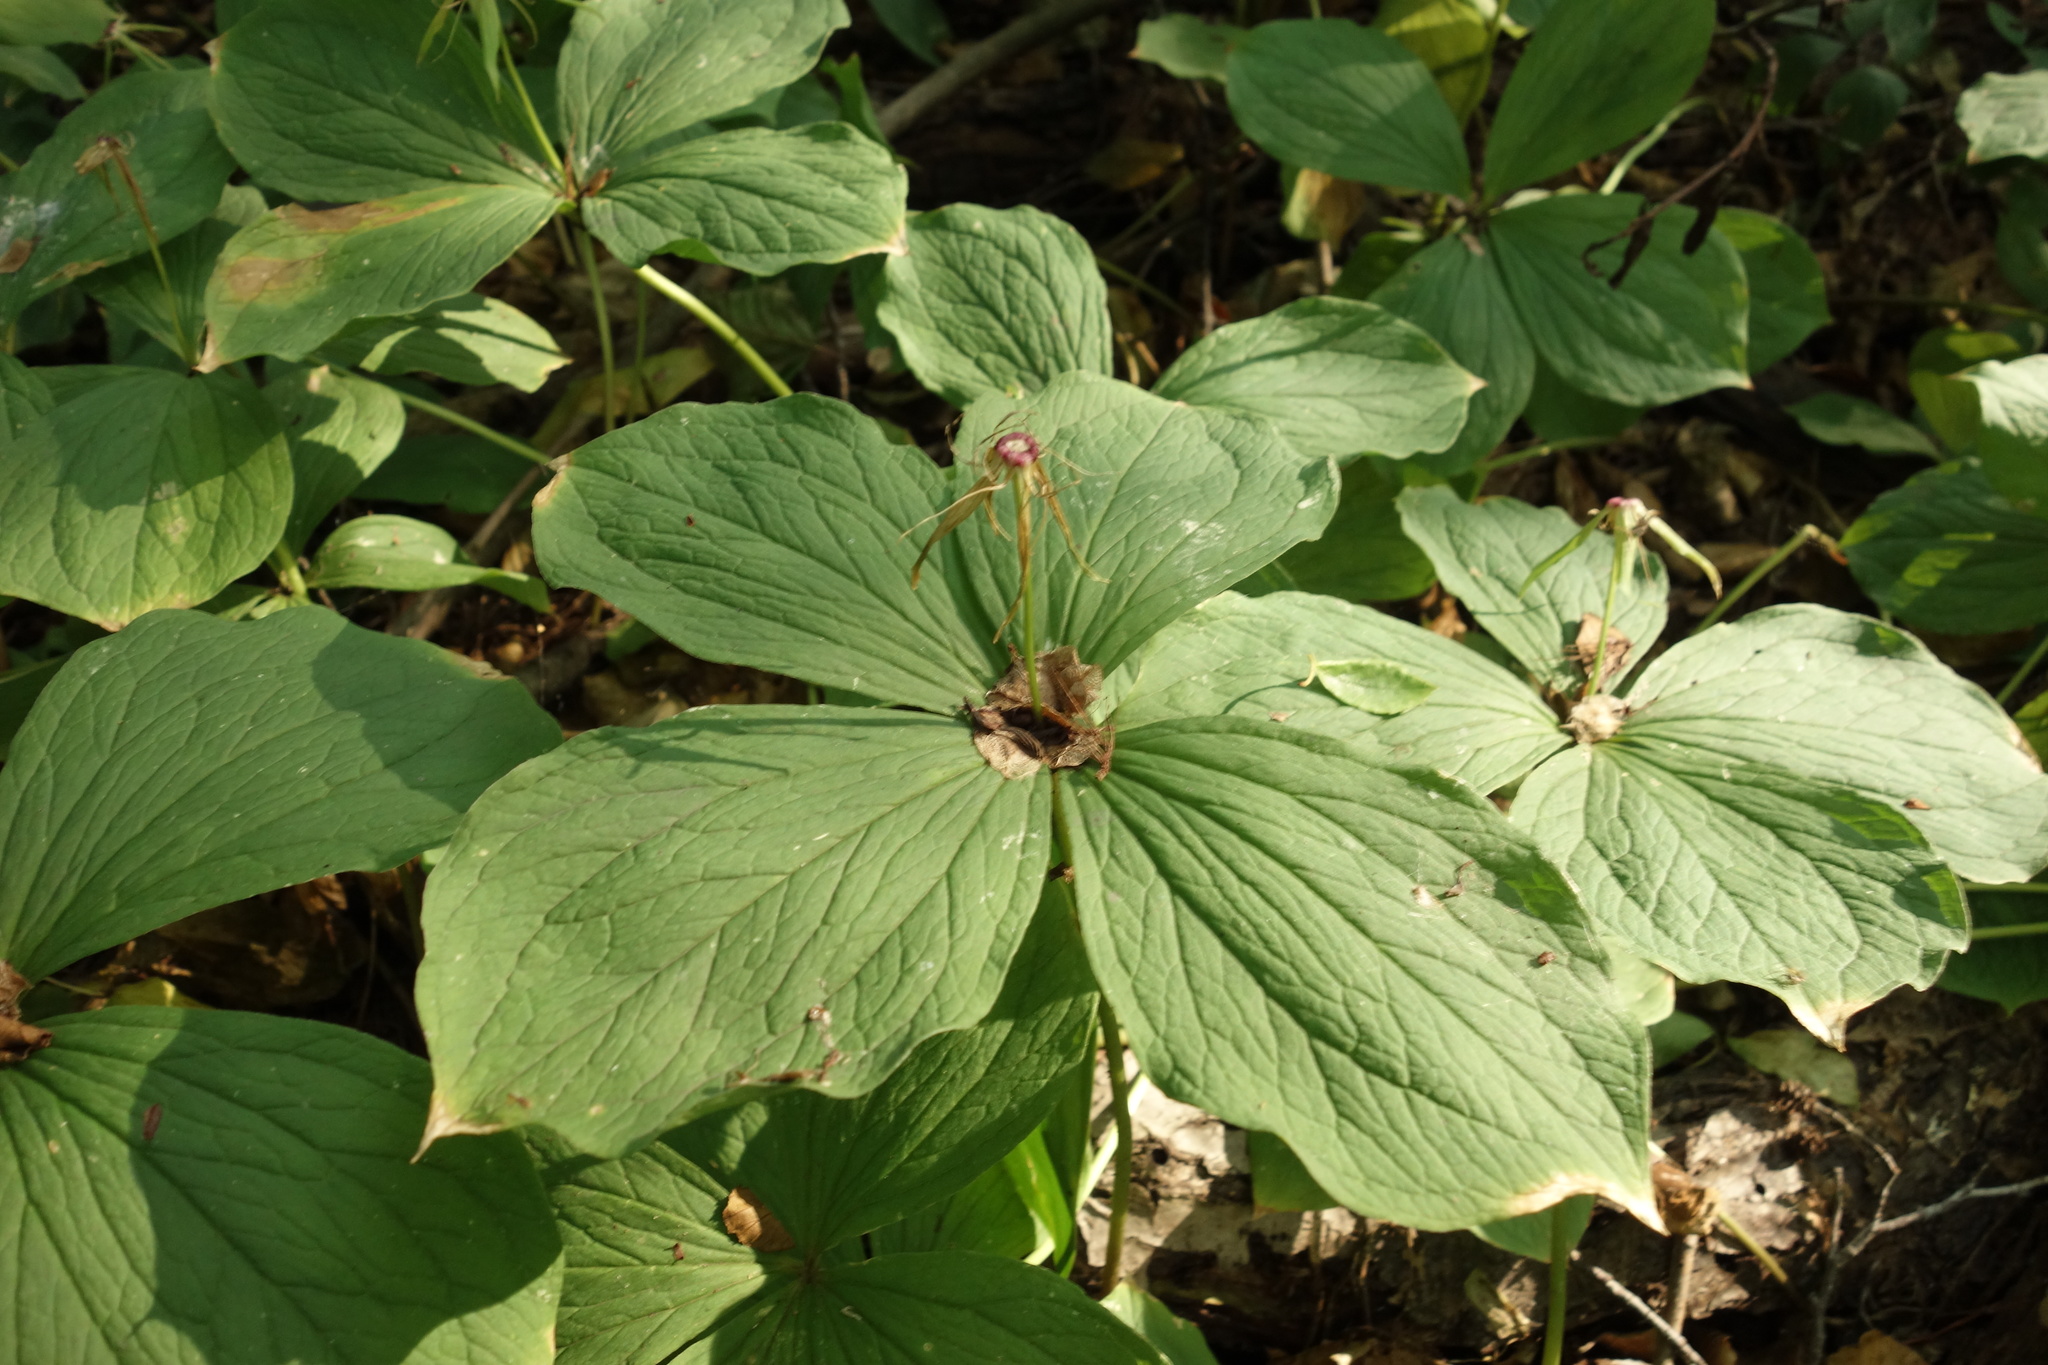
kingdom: Plantae
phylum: Tracheophyta
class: Liliopsida
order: Liliales
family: Melanthiaceae
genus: Paris
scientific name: Paris quadrifolia
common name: Herb-paris
